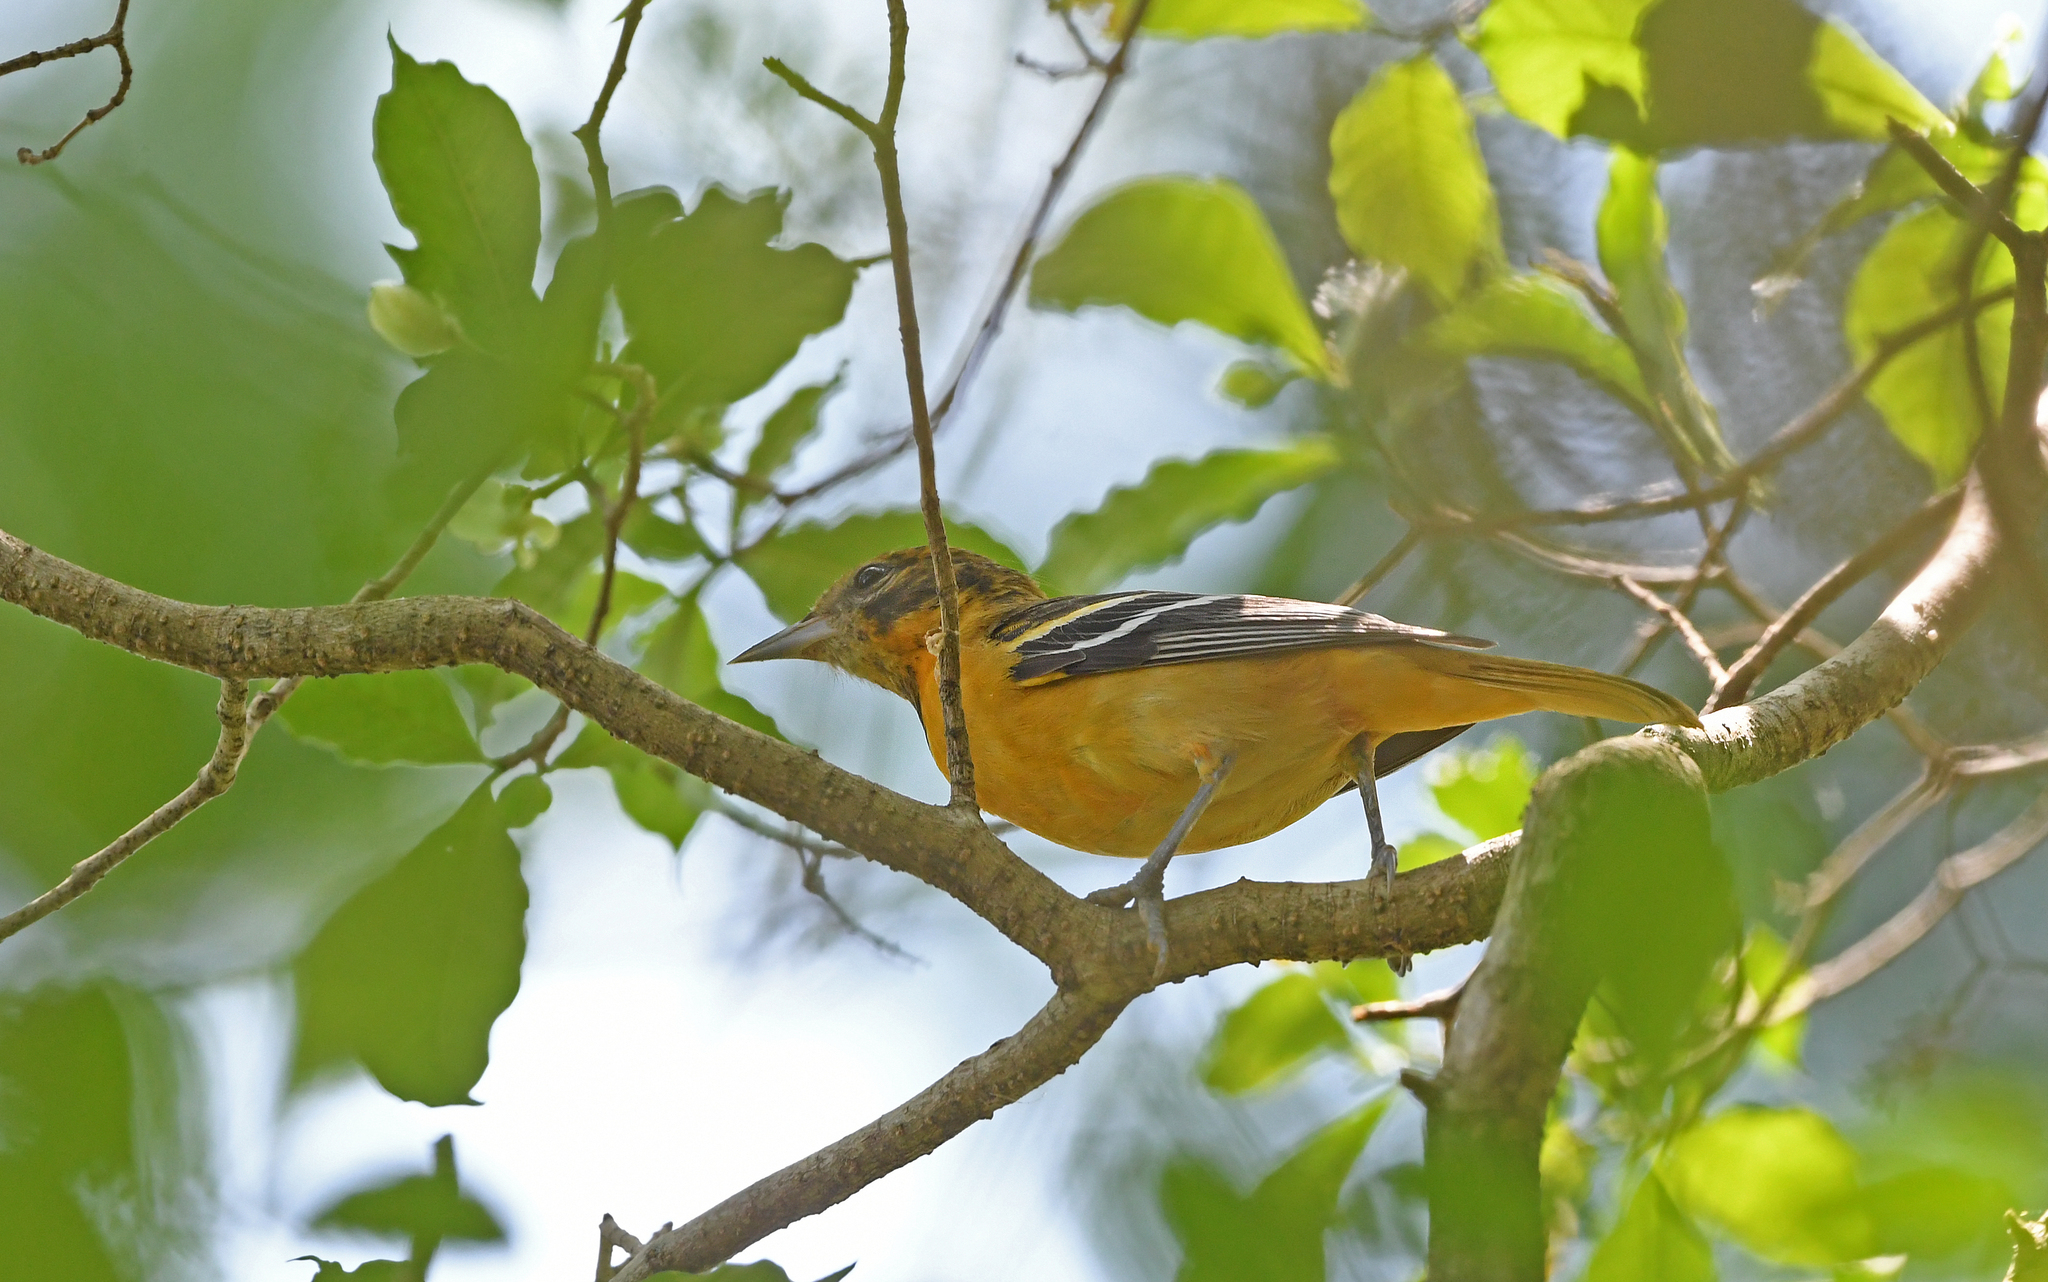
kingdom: Animalia
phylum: Chordata
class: Aves
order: Passeriformes
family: Icteridae
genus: Icterus
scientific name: Icterus galbula
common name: Baltimore oriole
